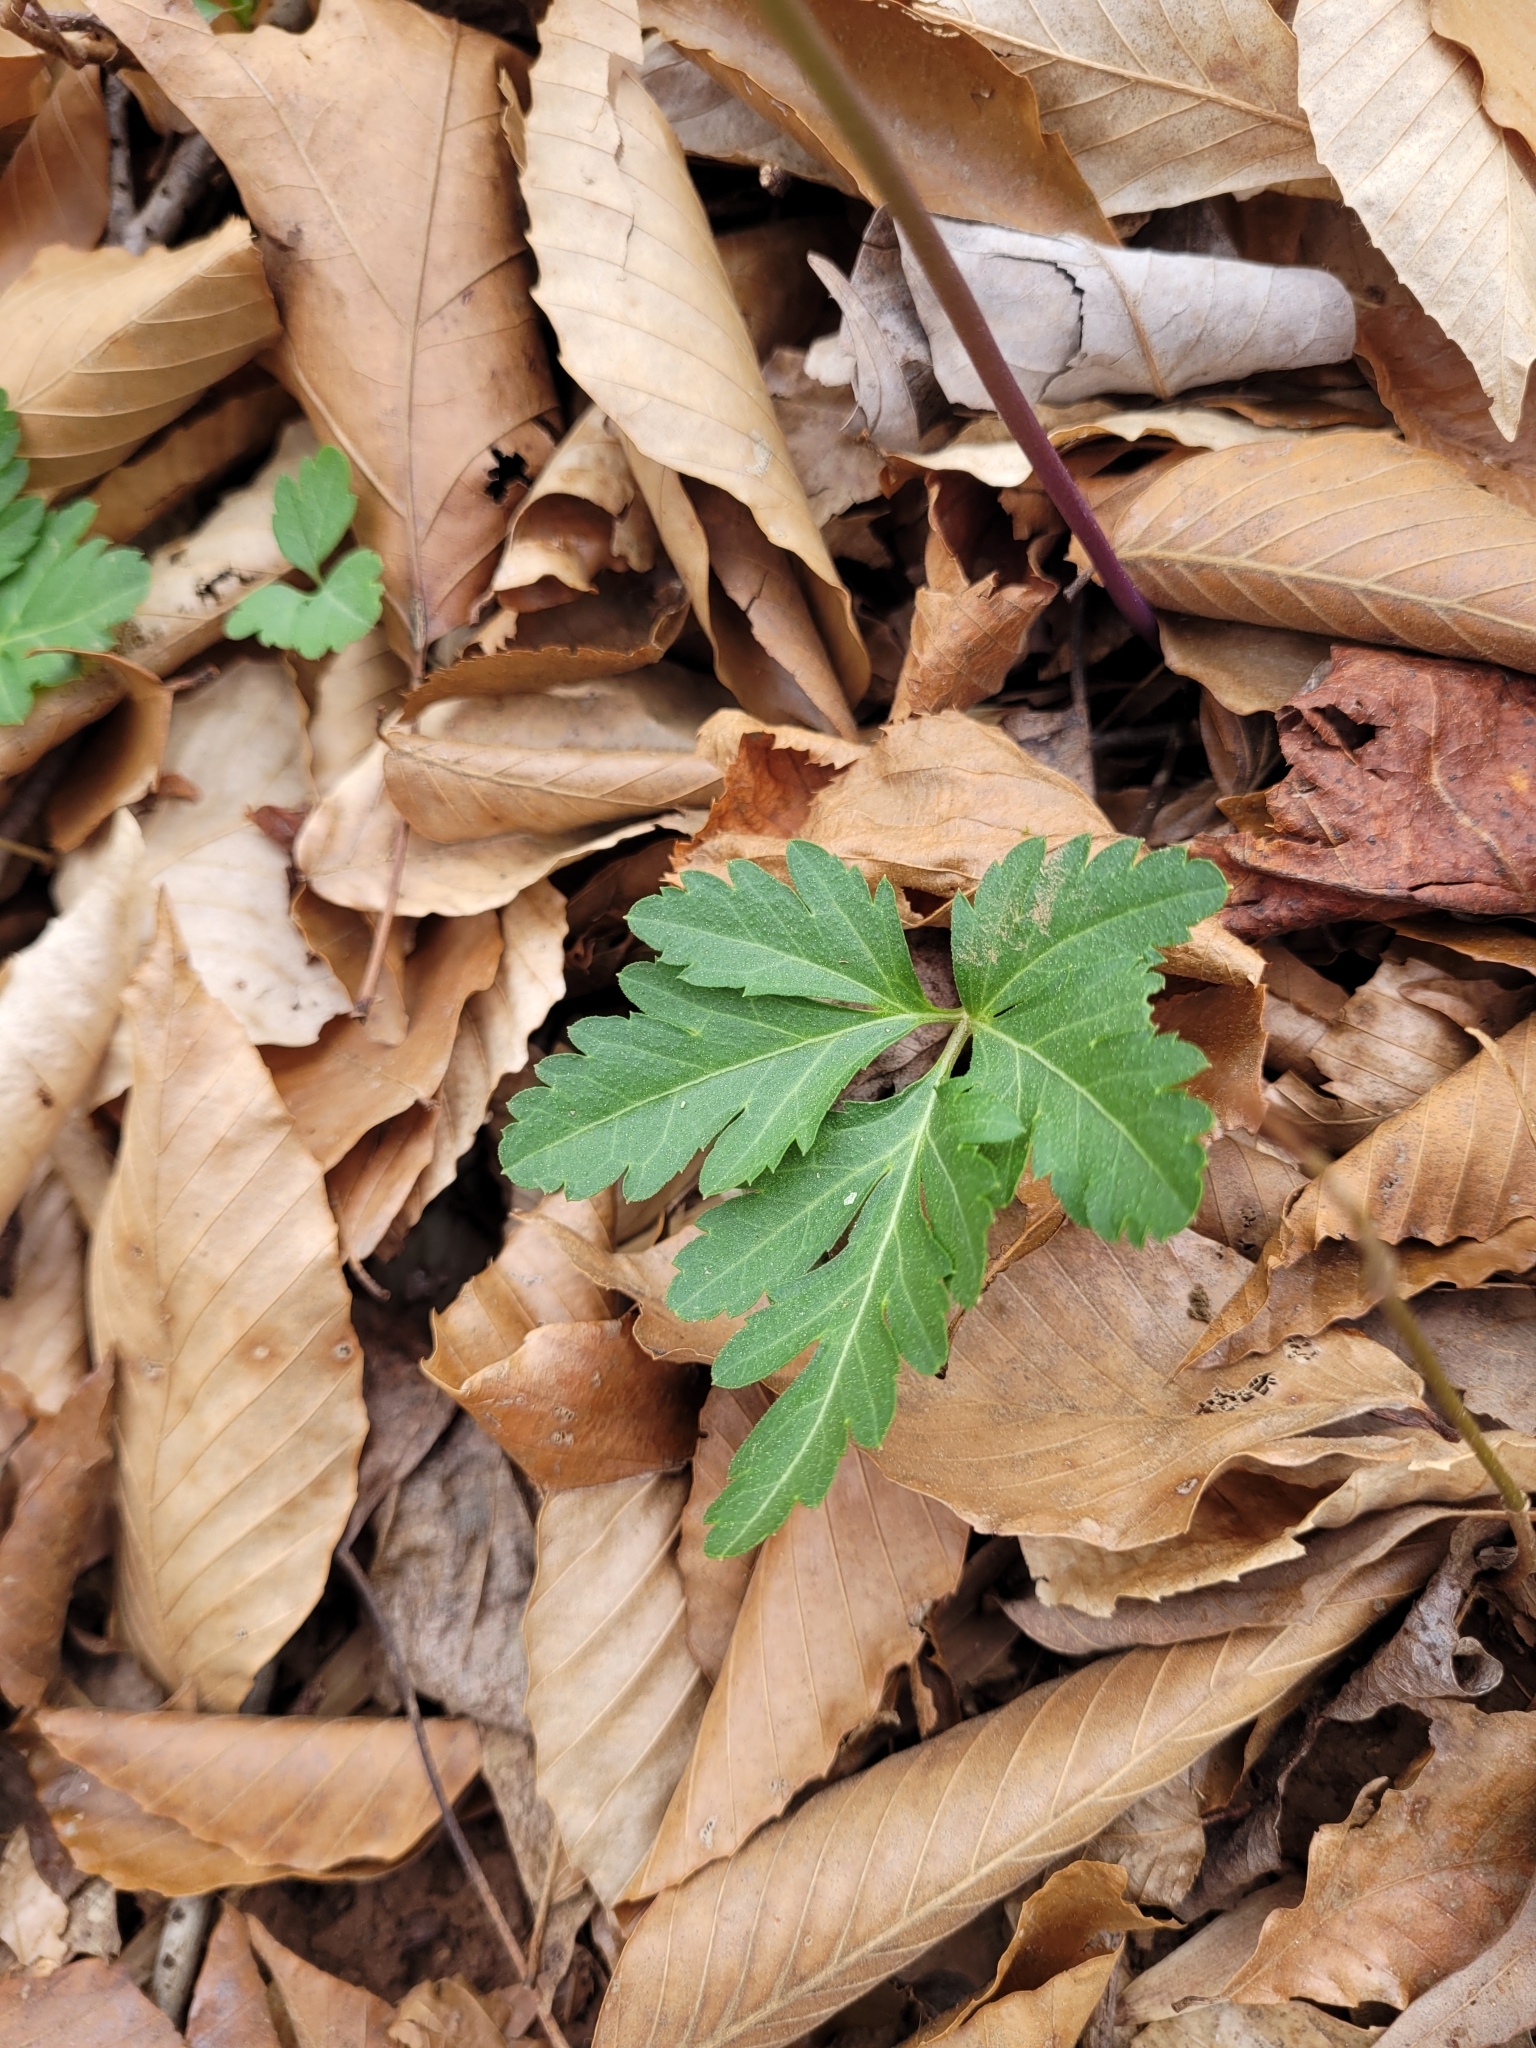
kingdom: Plantae
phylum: Tracheophyta
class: Magnoliopsida
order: Brassicales
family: Brassicaceae
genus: Cardamine
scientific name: Cardamine angustata
